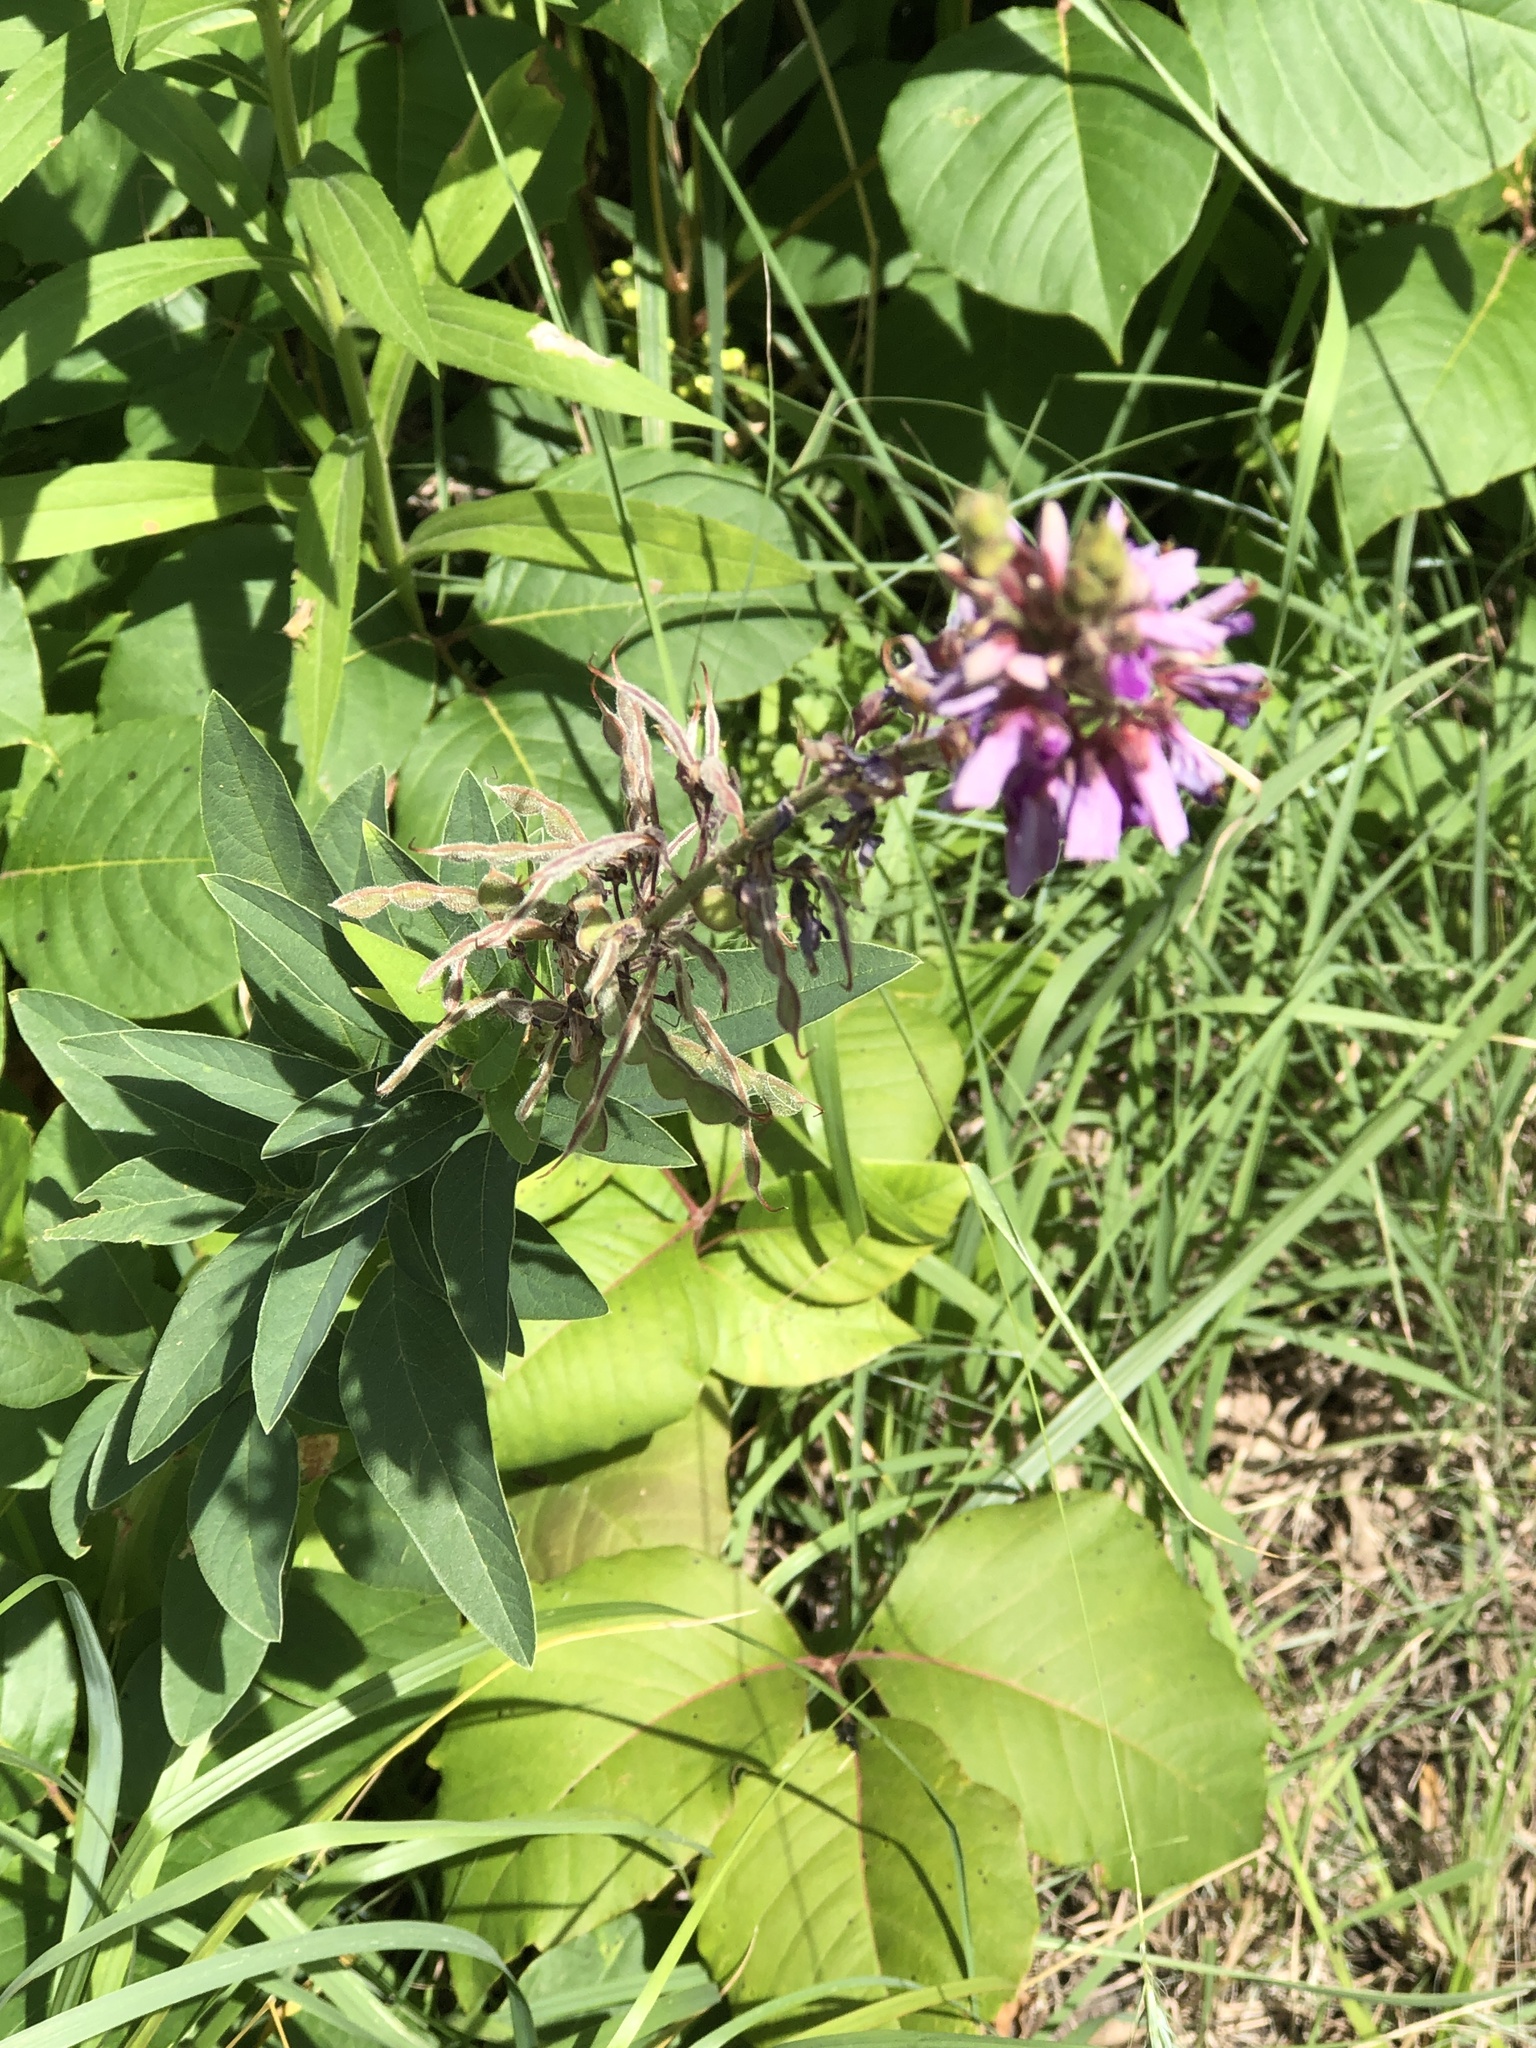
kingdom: Plantae
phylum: Tracheophyta
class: Magnoliopsida
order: Fabales
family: Fabaceae
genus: Desmodium
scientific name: Desmodium canadense
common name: Canada tick-trefoil
